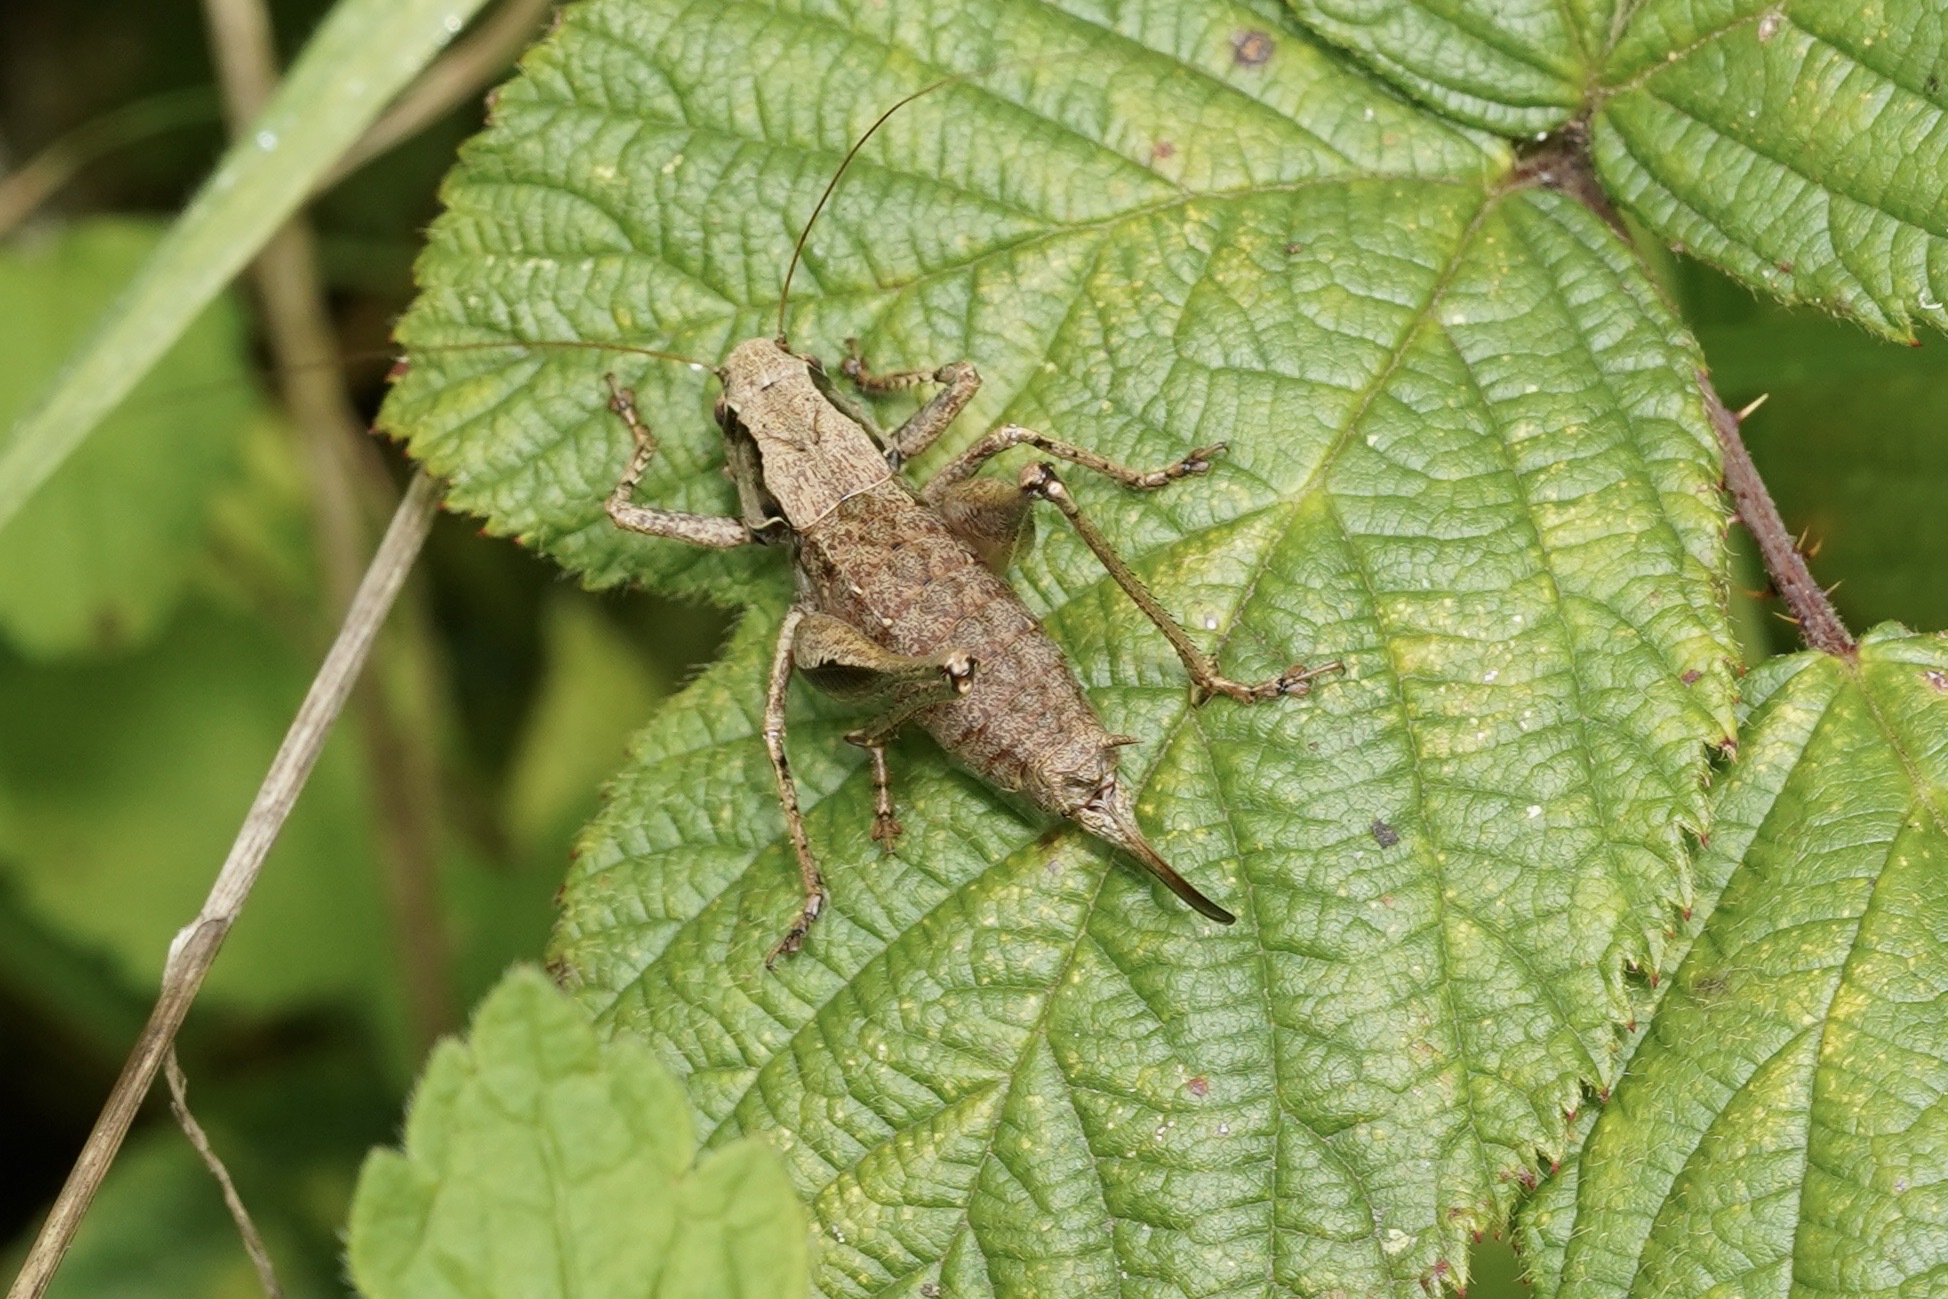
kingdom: Animalia
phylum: Arthropoda
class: Insecta
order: Orthoptera
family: Tettigoniidae
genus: Pholidoptera
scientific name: Pholidoptera griseoaptera
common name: Dark bush-cricket
